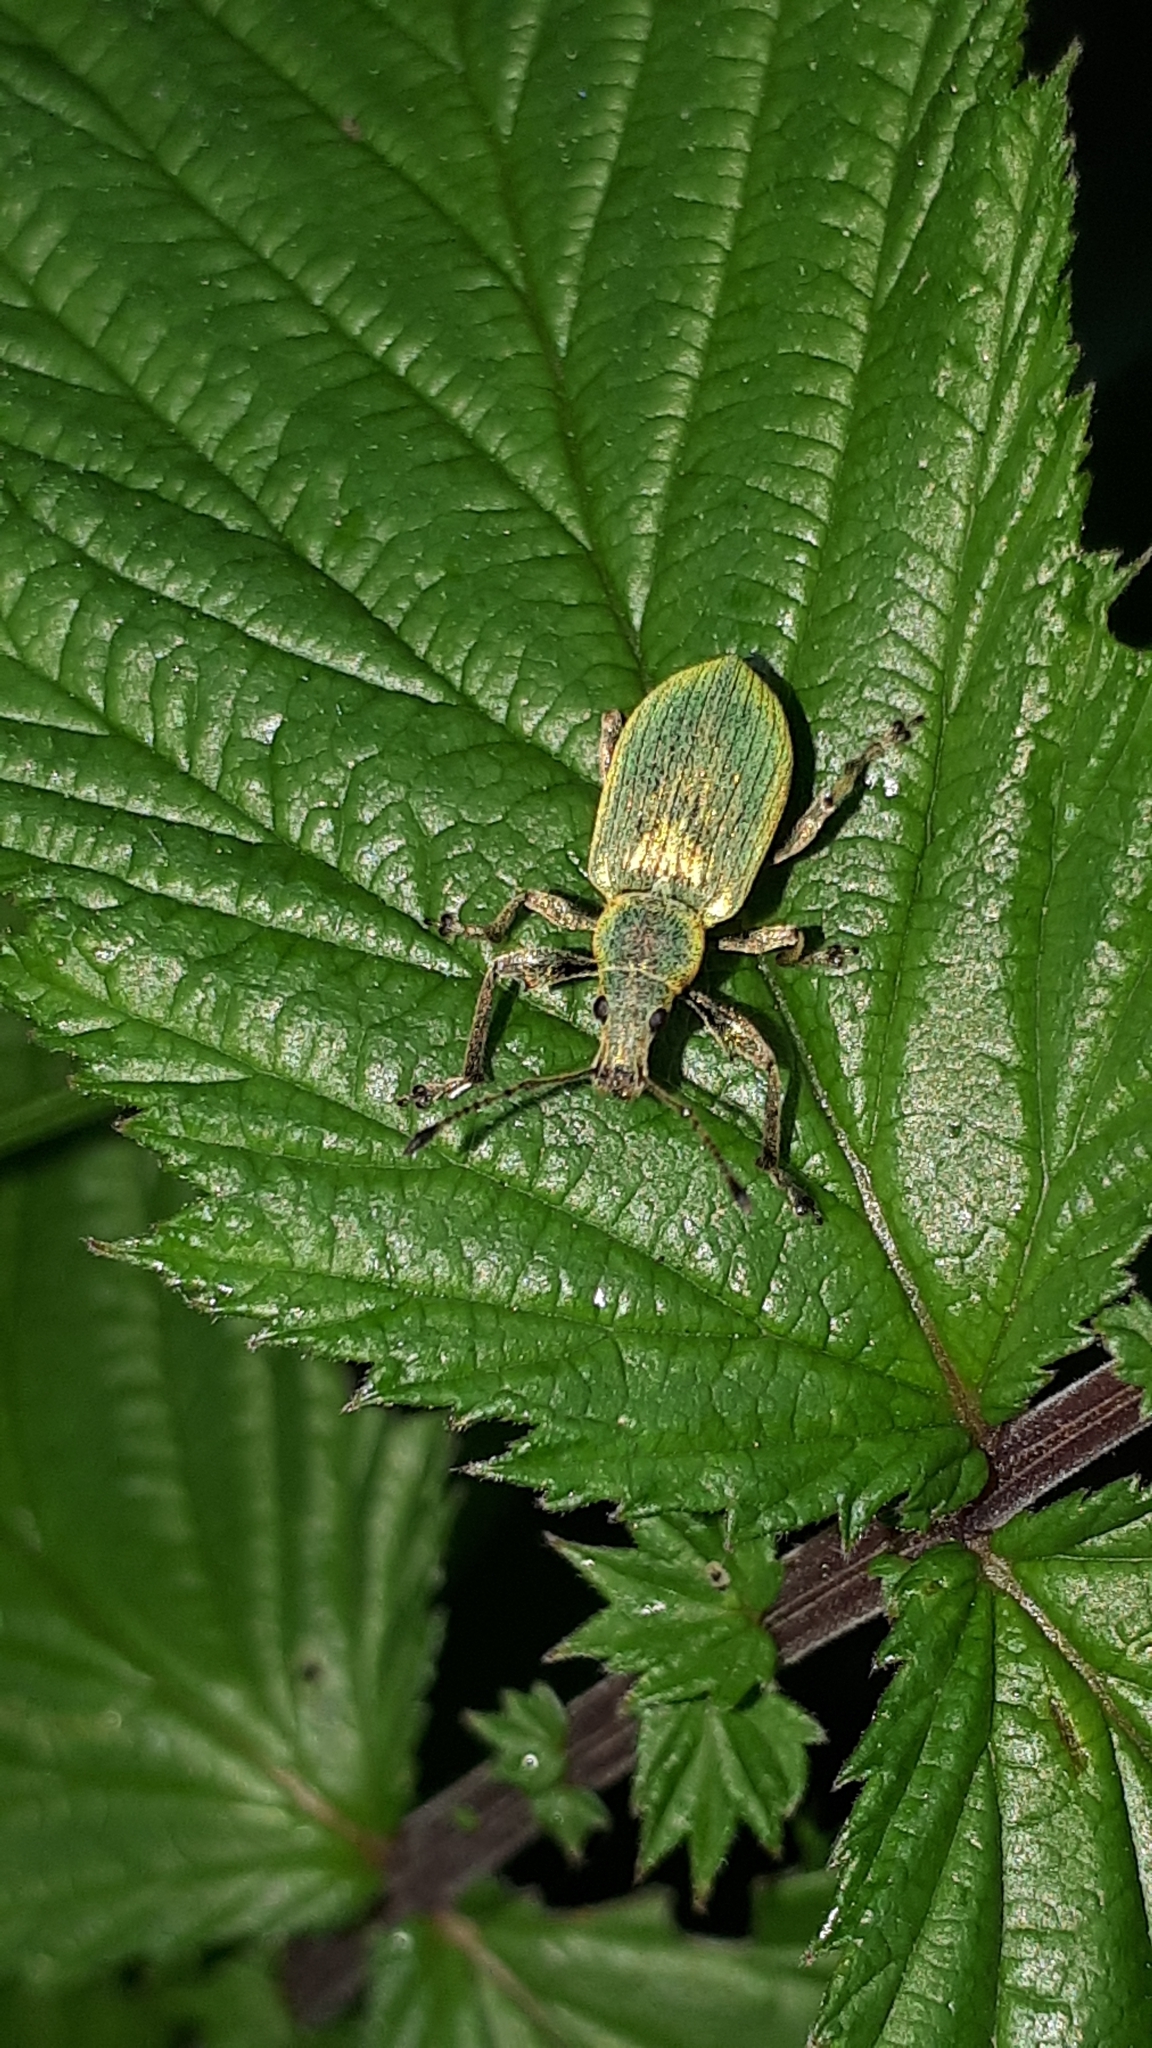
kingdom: Animalia
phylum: Arthropoda
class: Insecta
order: Coleoptera
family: Curculionidae
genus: Phyllobius
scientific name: Phyllobius pomaceus
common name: Green nettle weevil
